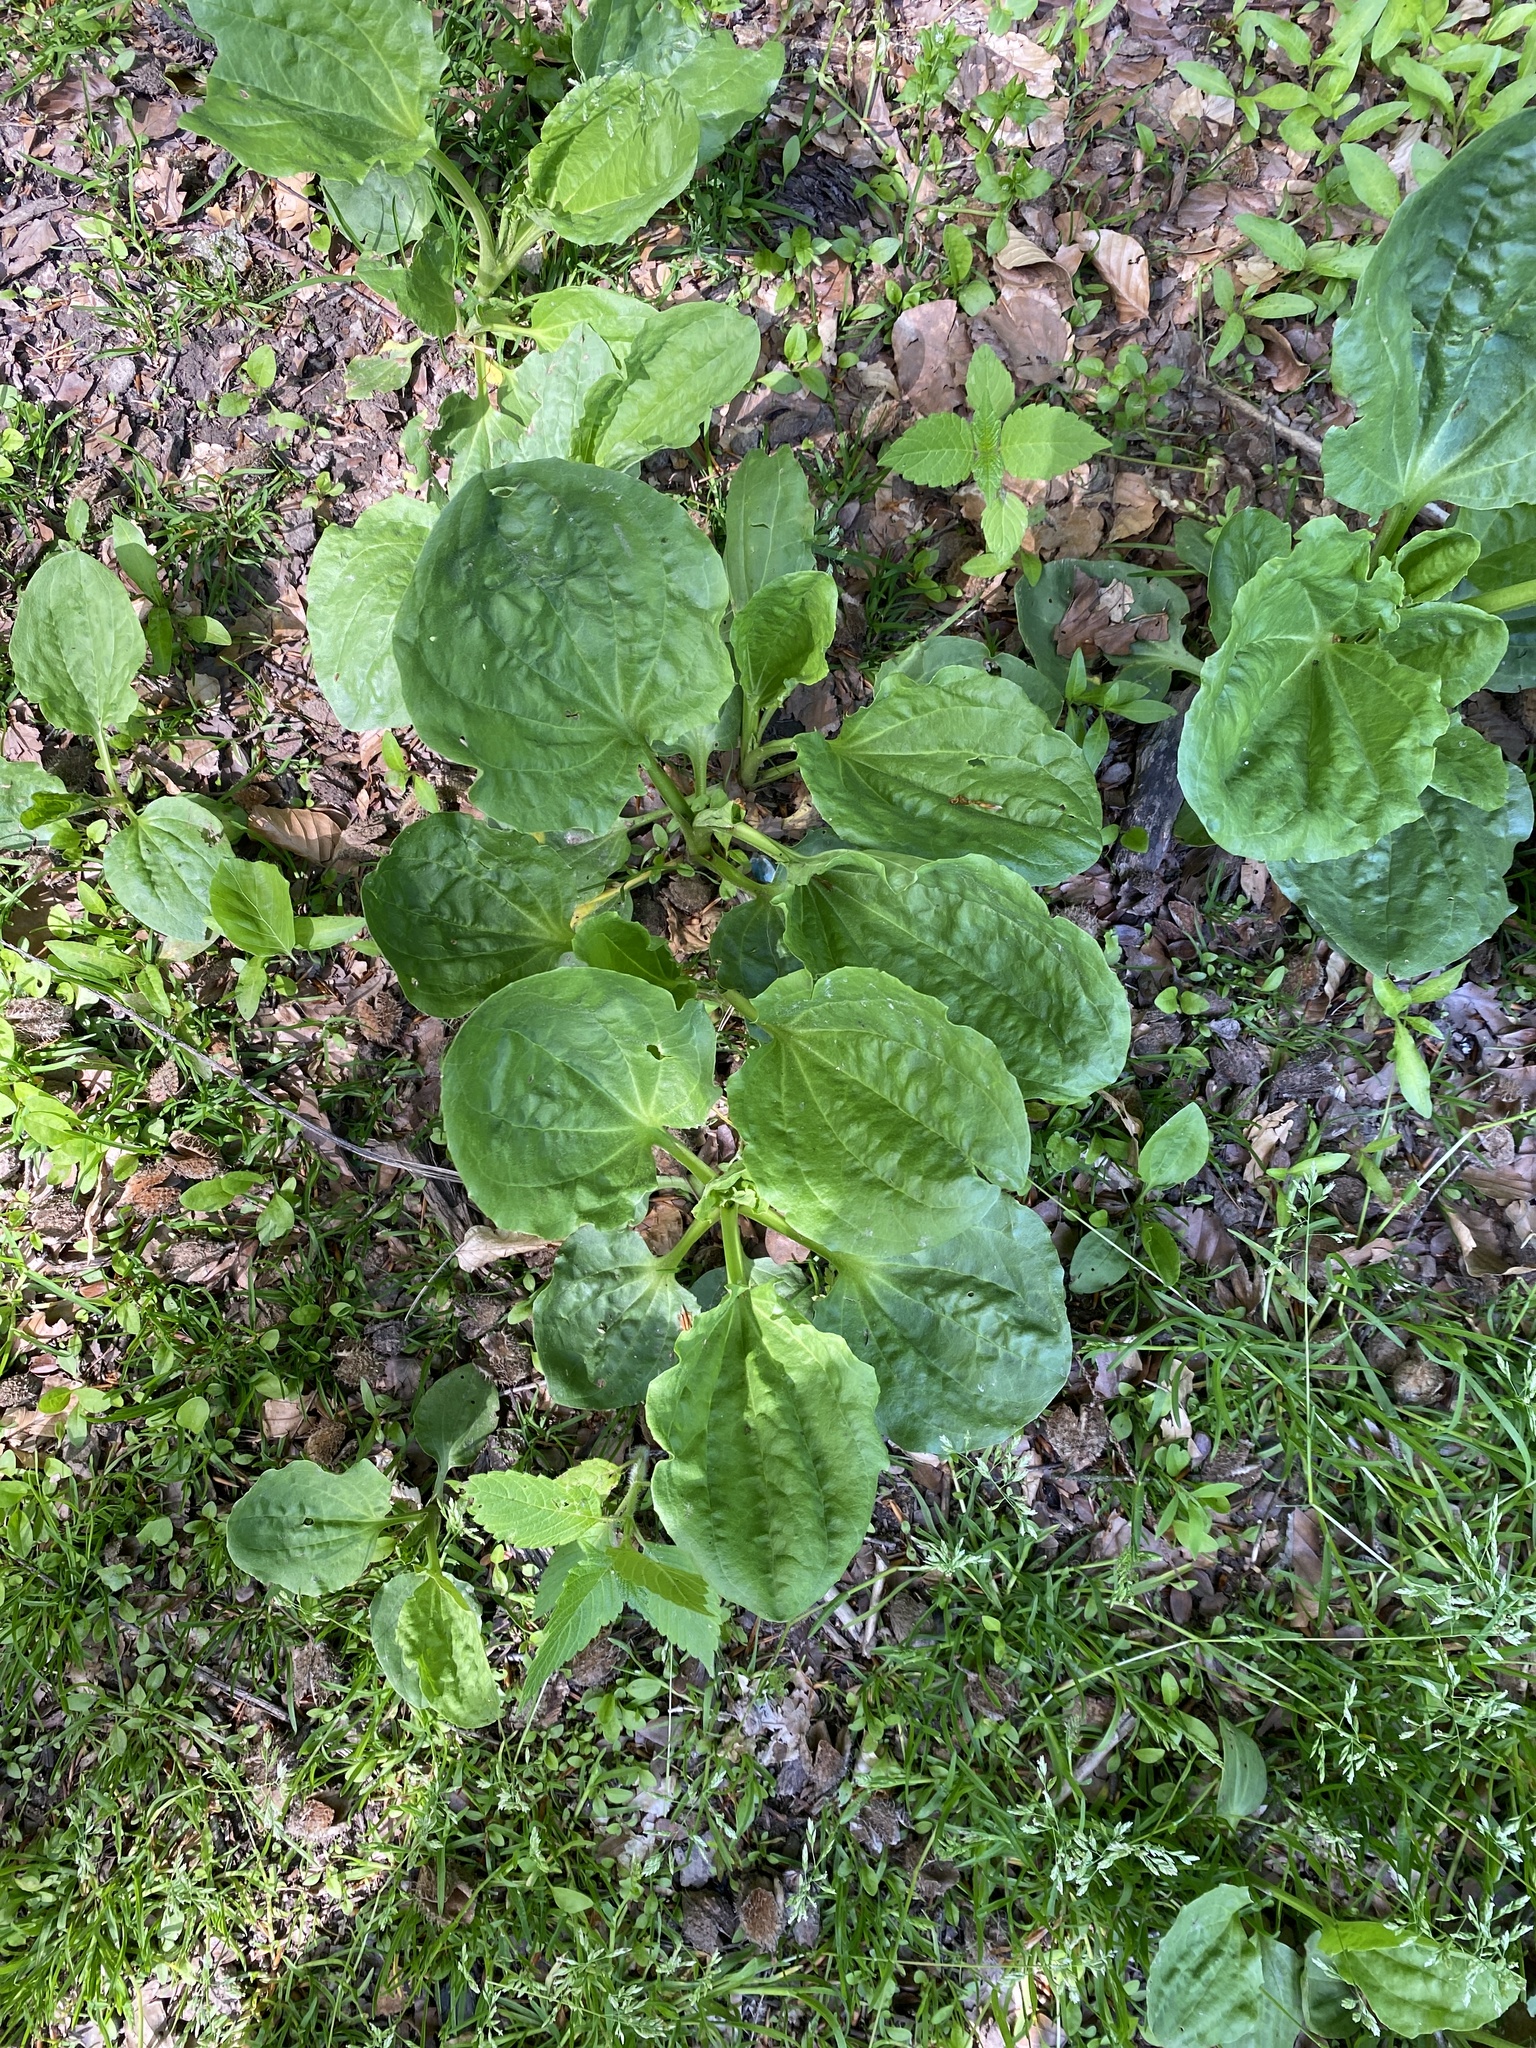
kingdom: Plantae
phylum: Tracheophyta
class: Magnoliopsida
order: Lamiales
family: Plantaginaceae
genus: Plantago
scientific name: Plantago major
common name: Common plantain
